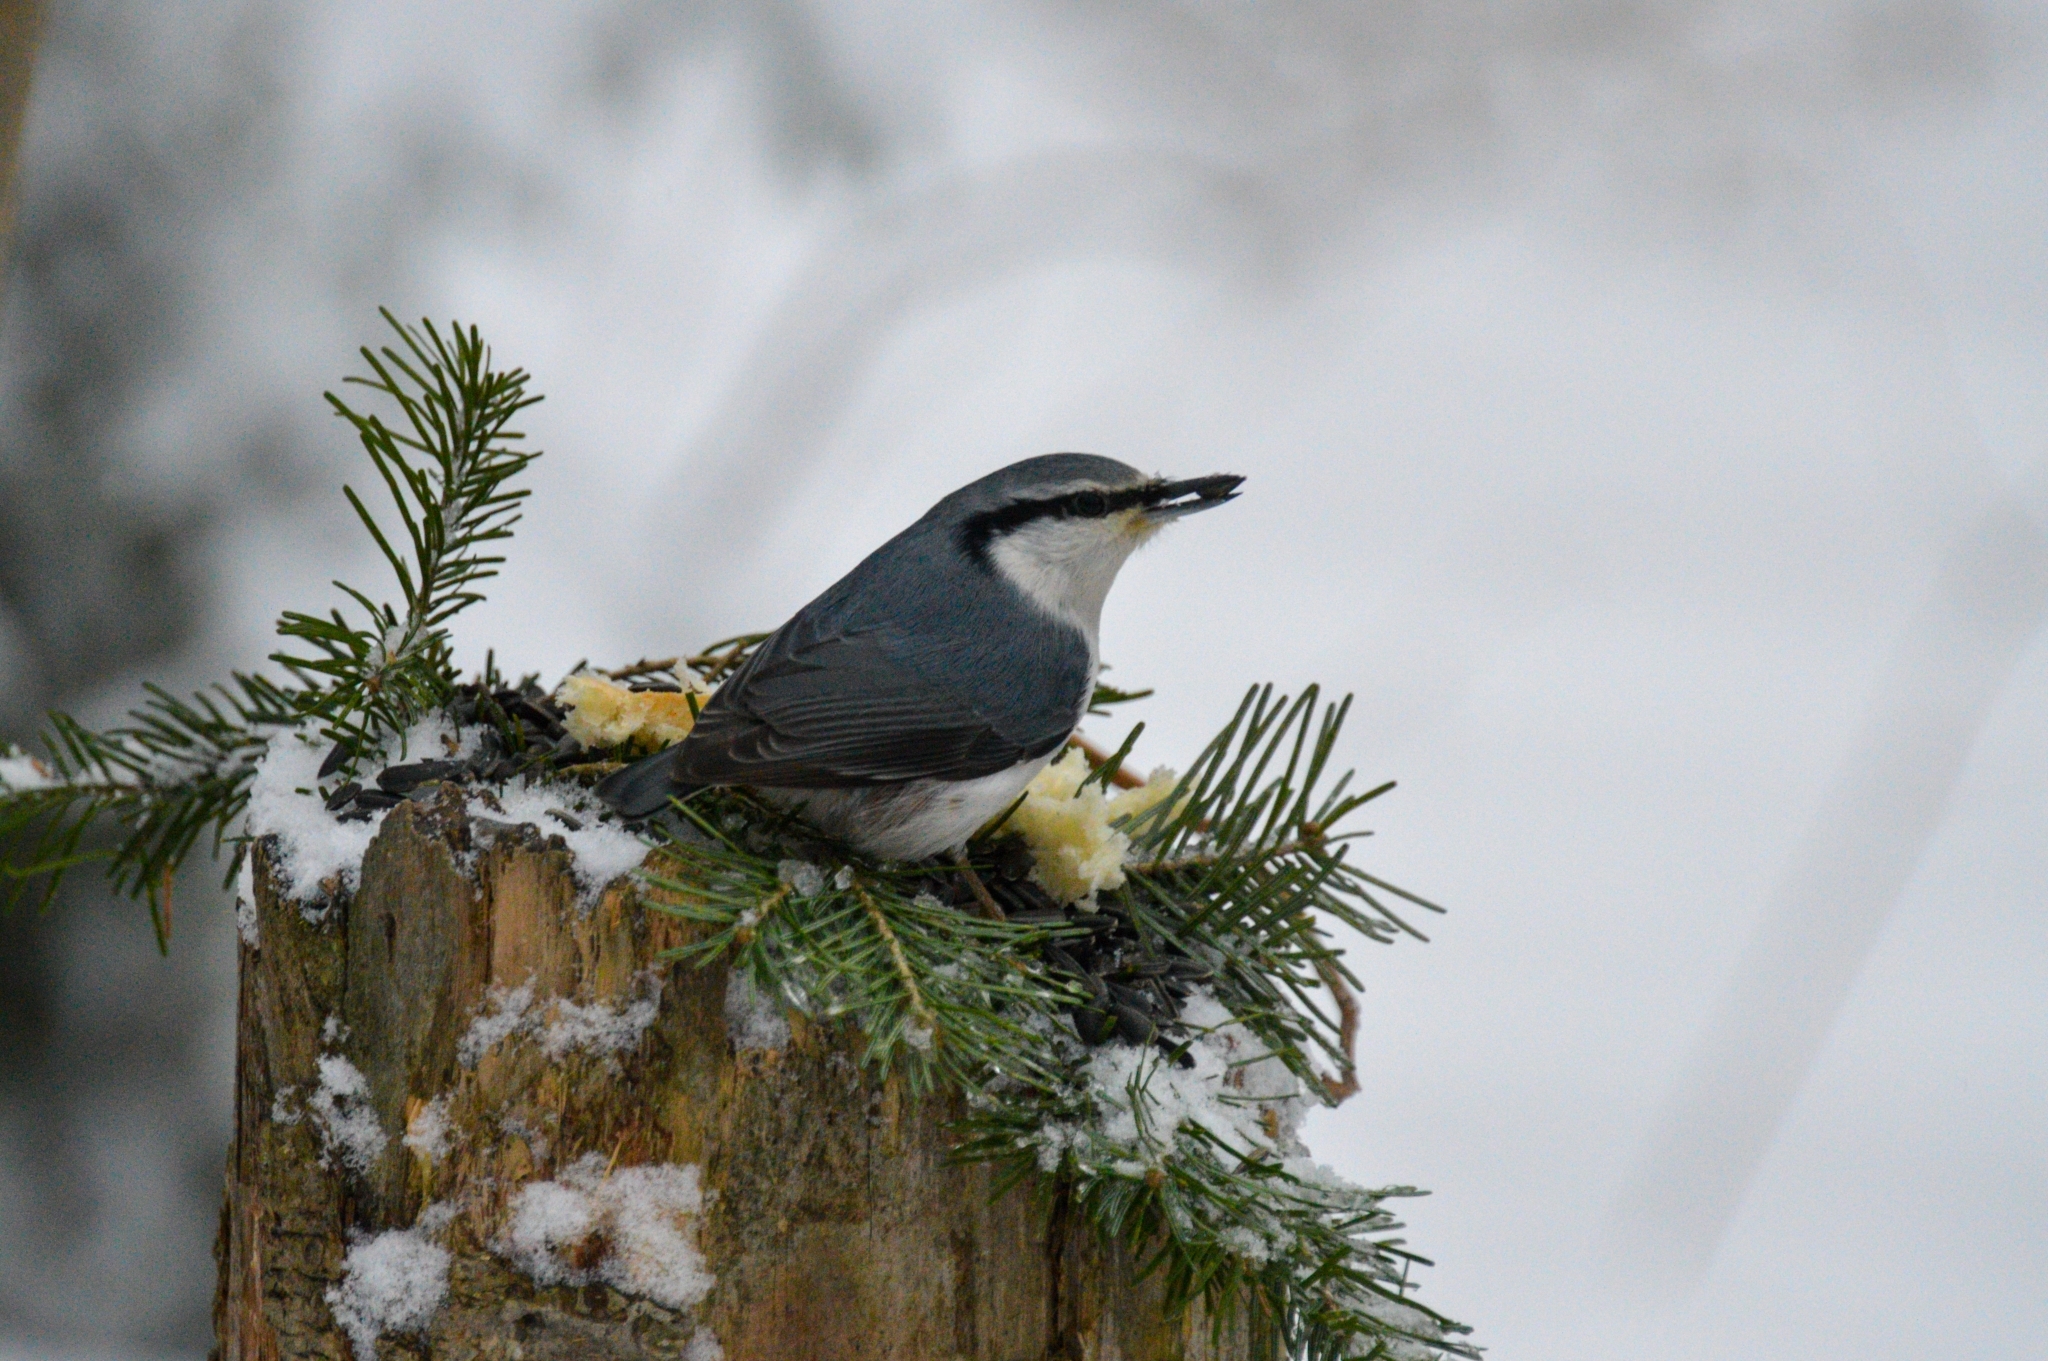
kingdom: Animalia
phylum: Chordata
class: Aves
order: Passeriformes
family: Sittidae
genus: Sitta
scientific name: Sitta europaea
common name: Eurasian nuthatch
